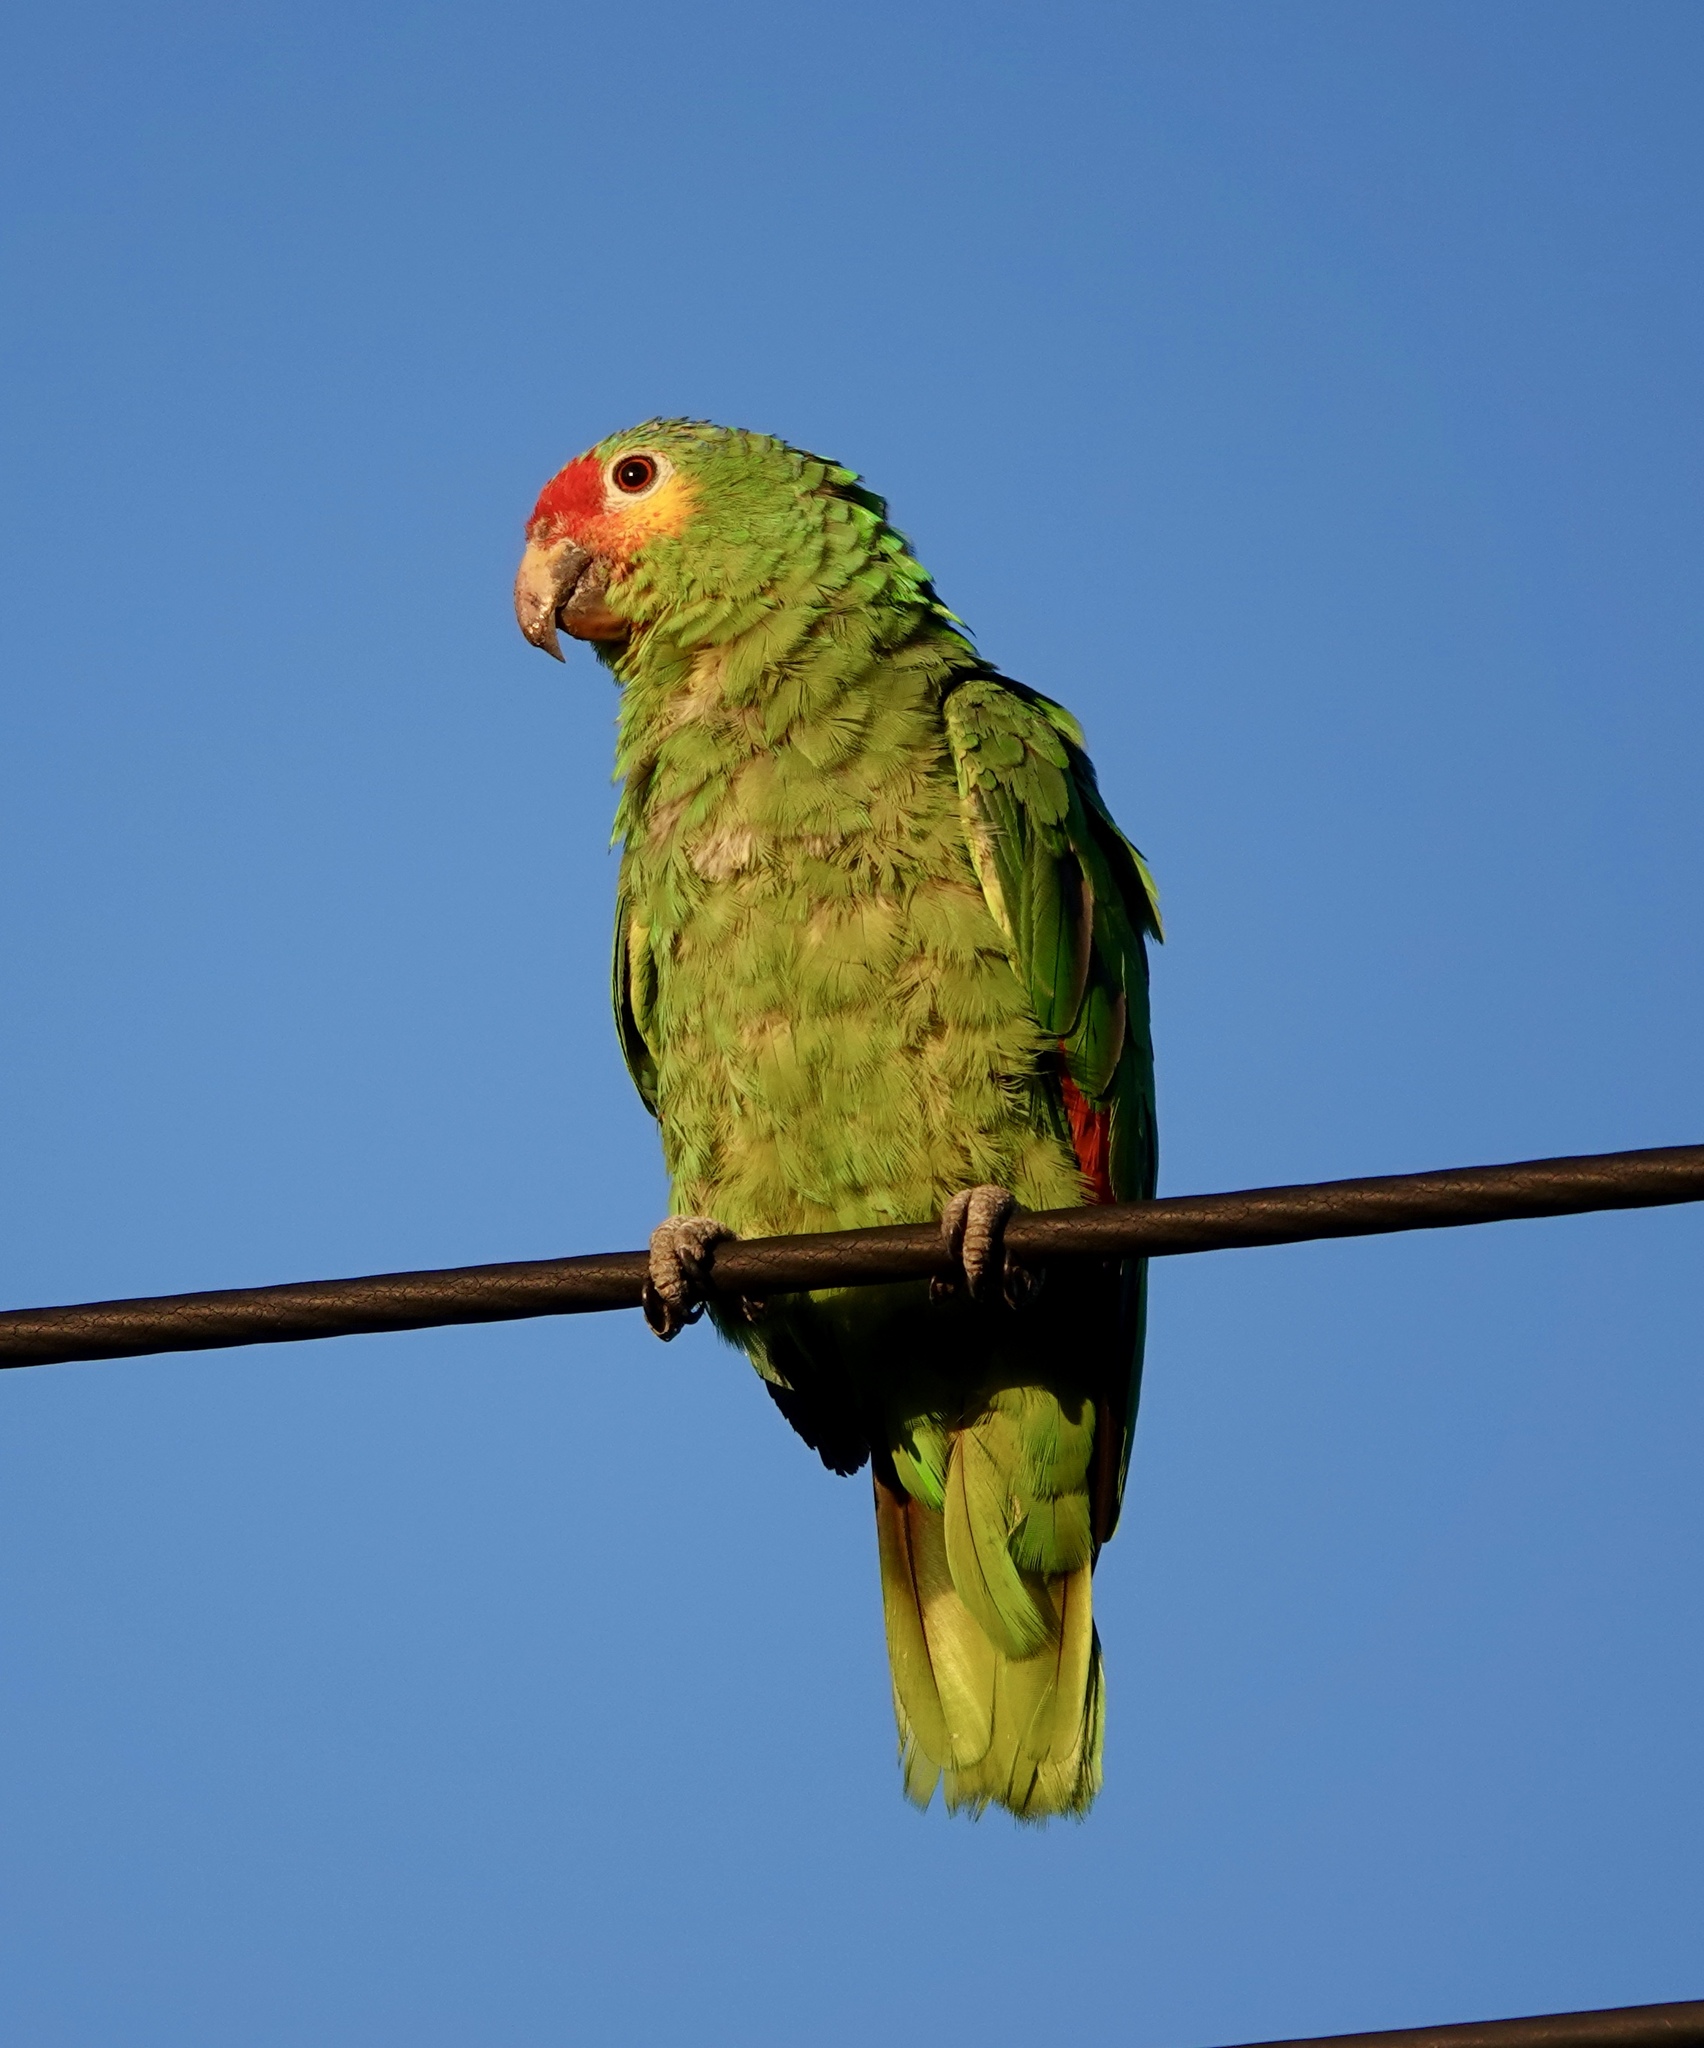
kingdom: Animalia
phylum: Chordata
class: Aves
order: Psittaciformes
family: Psittacidae
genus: Amazona
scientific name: Amazona autumnalis
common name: Red-lored amazon
